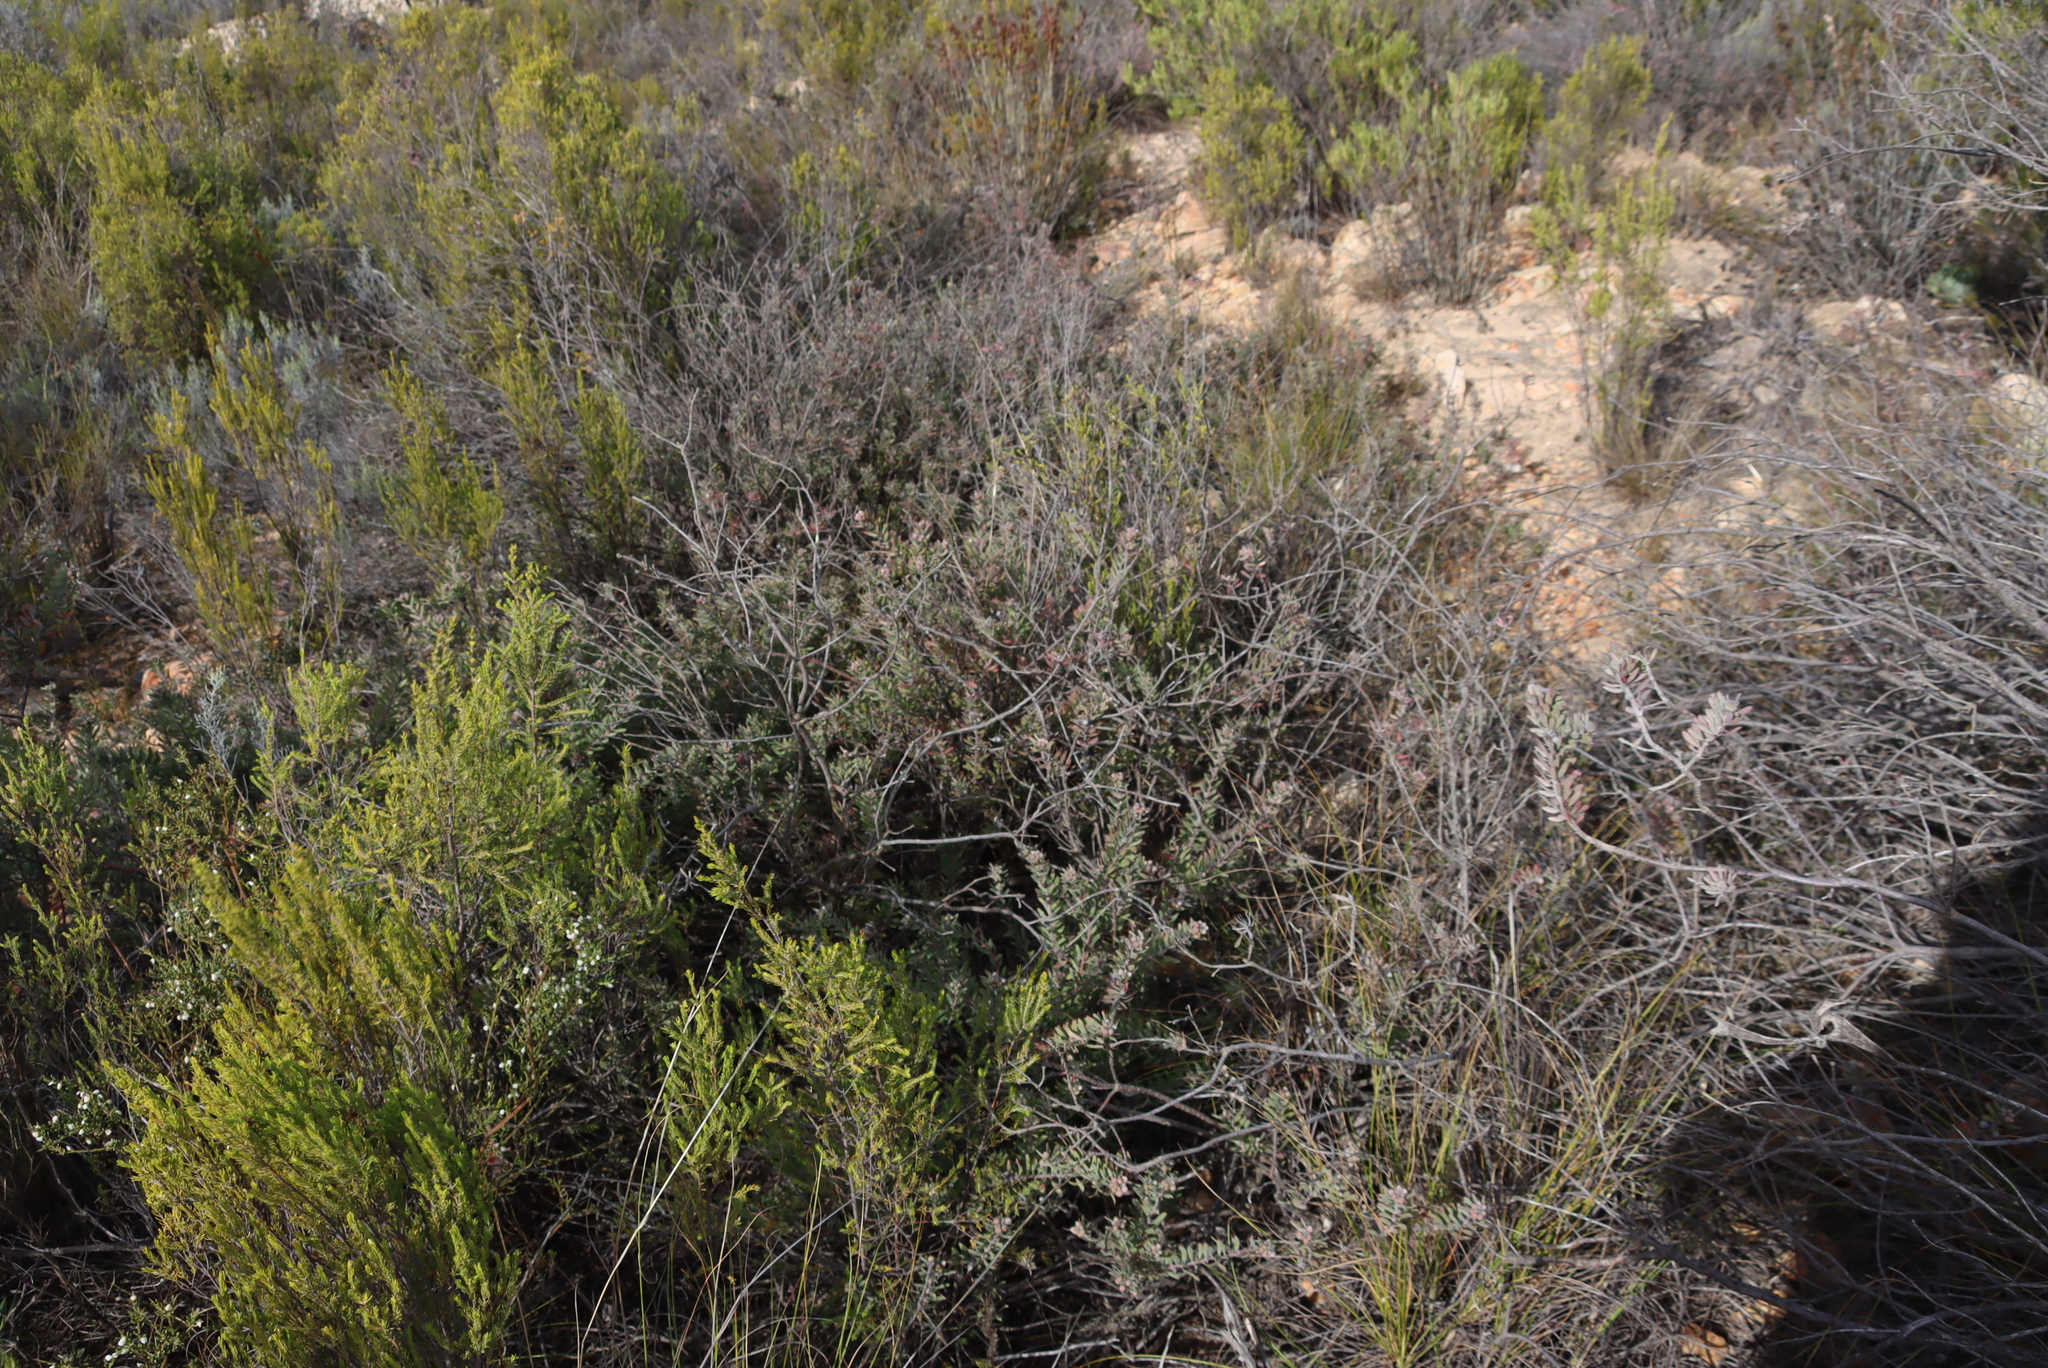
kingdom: Plantae
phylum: Tracheophyta
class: Magnoliopsida
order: Proteales
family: Proteaceae
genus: Leucospermum
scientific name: Leucospermum wittebergense
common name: Swartberg pincushion
